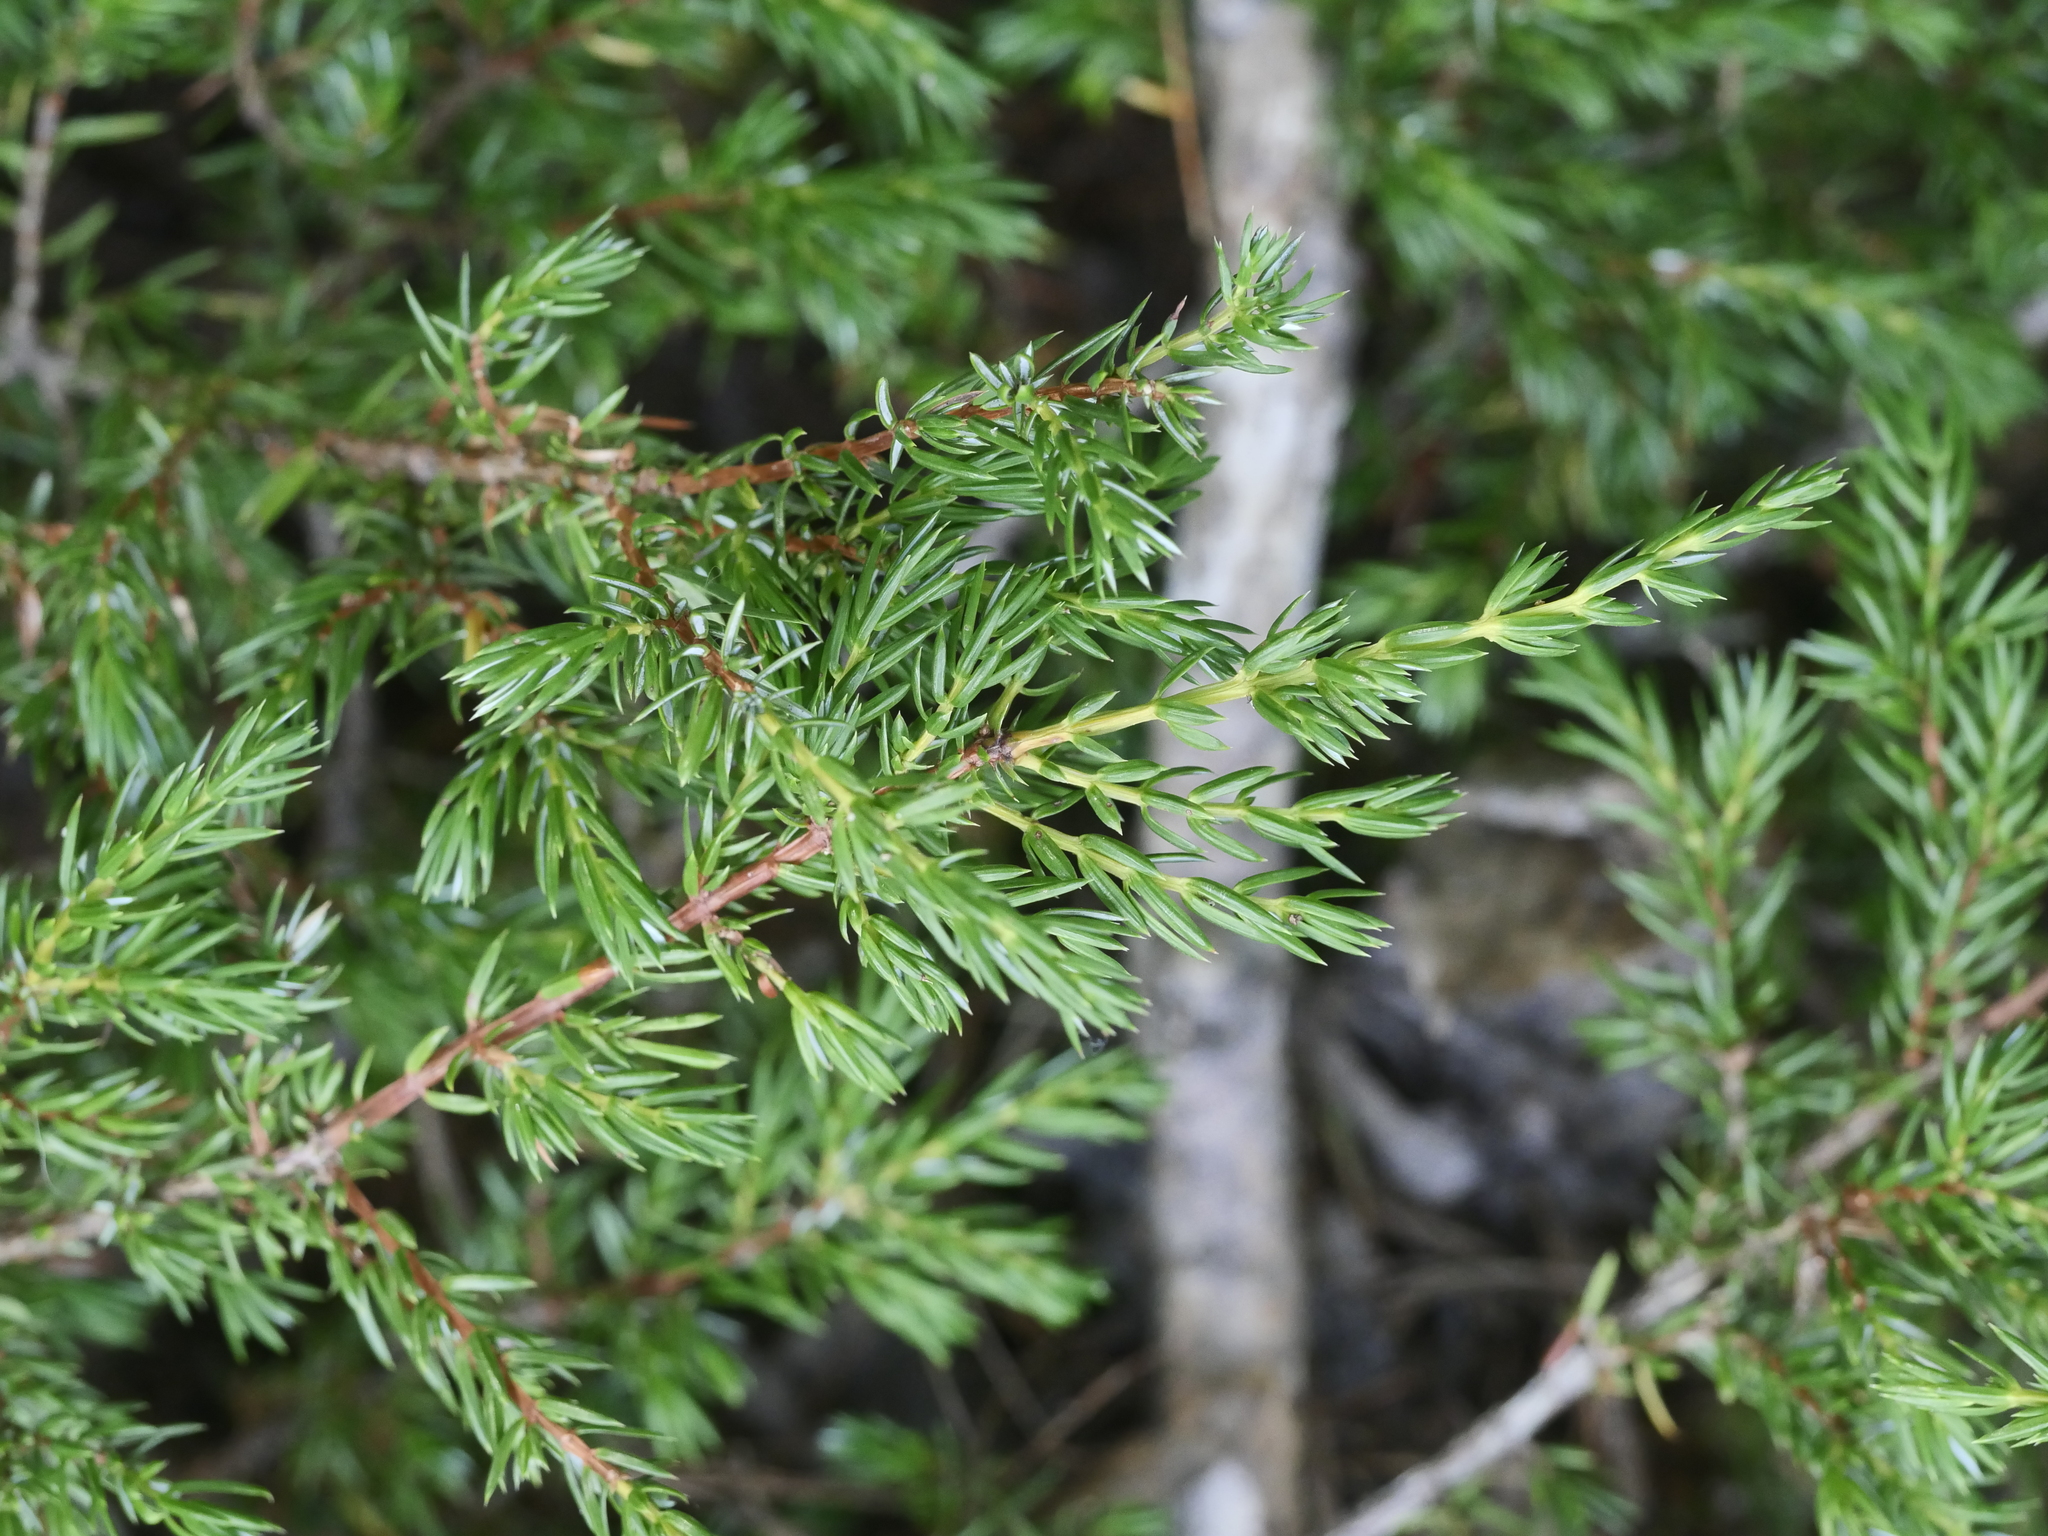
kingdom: Plantae
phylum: Tracheophyta
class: Pinopsida
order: Pinales
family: Cupressaceae
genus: Juniperus
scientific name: Juniperus communis
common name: Common juniper
